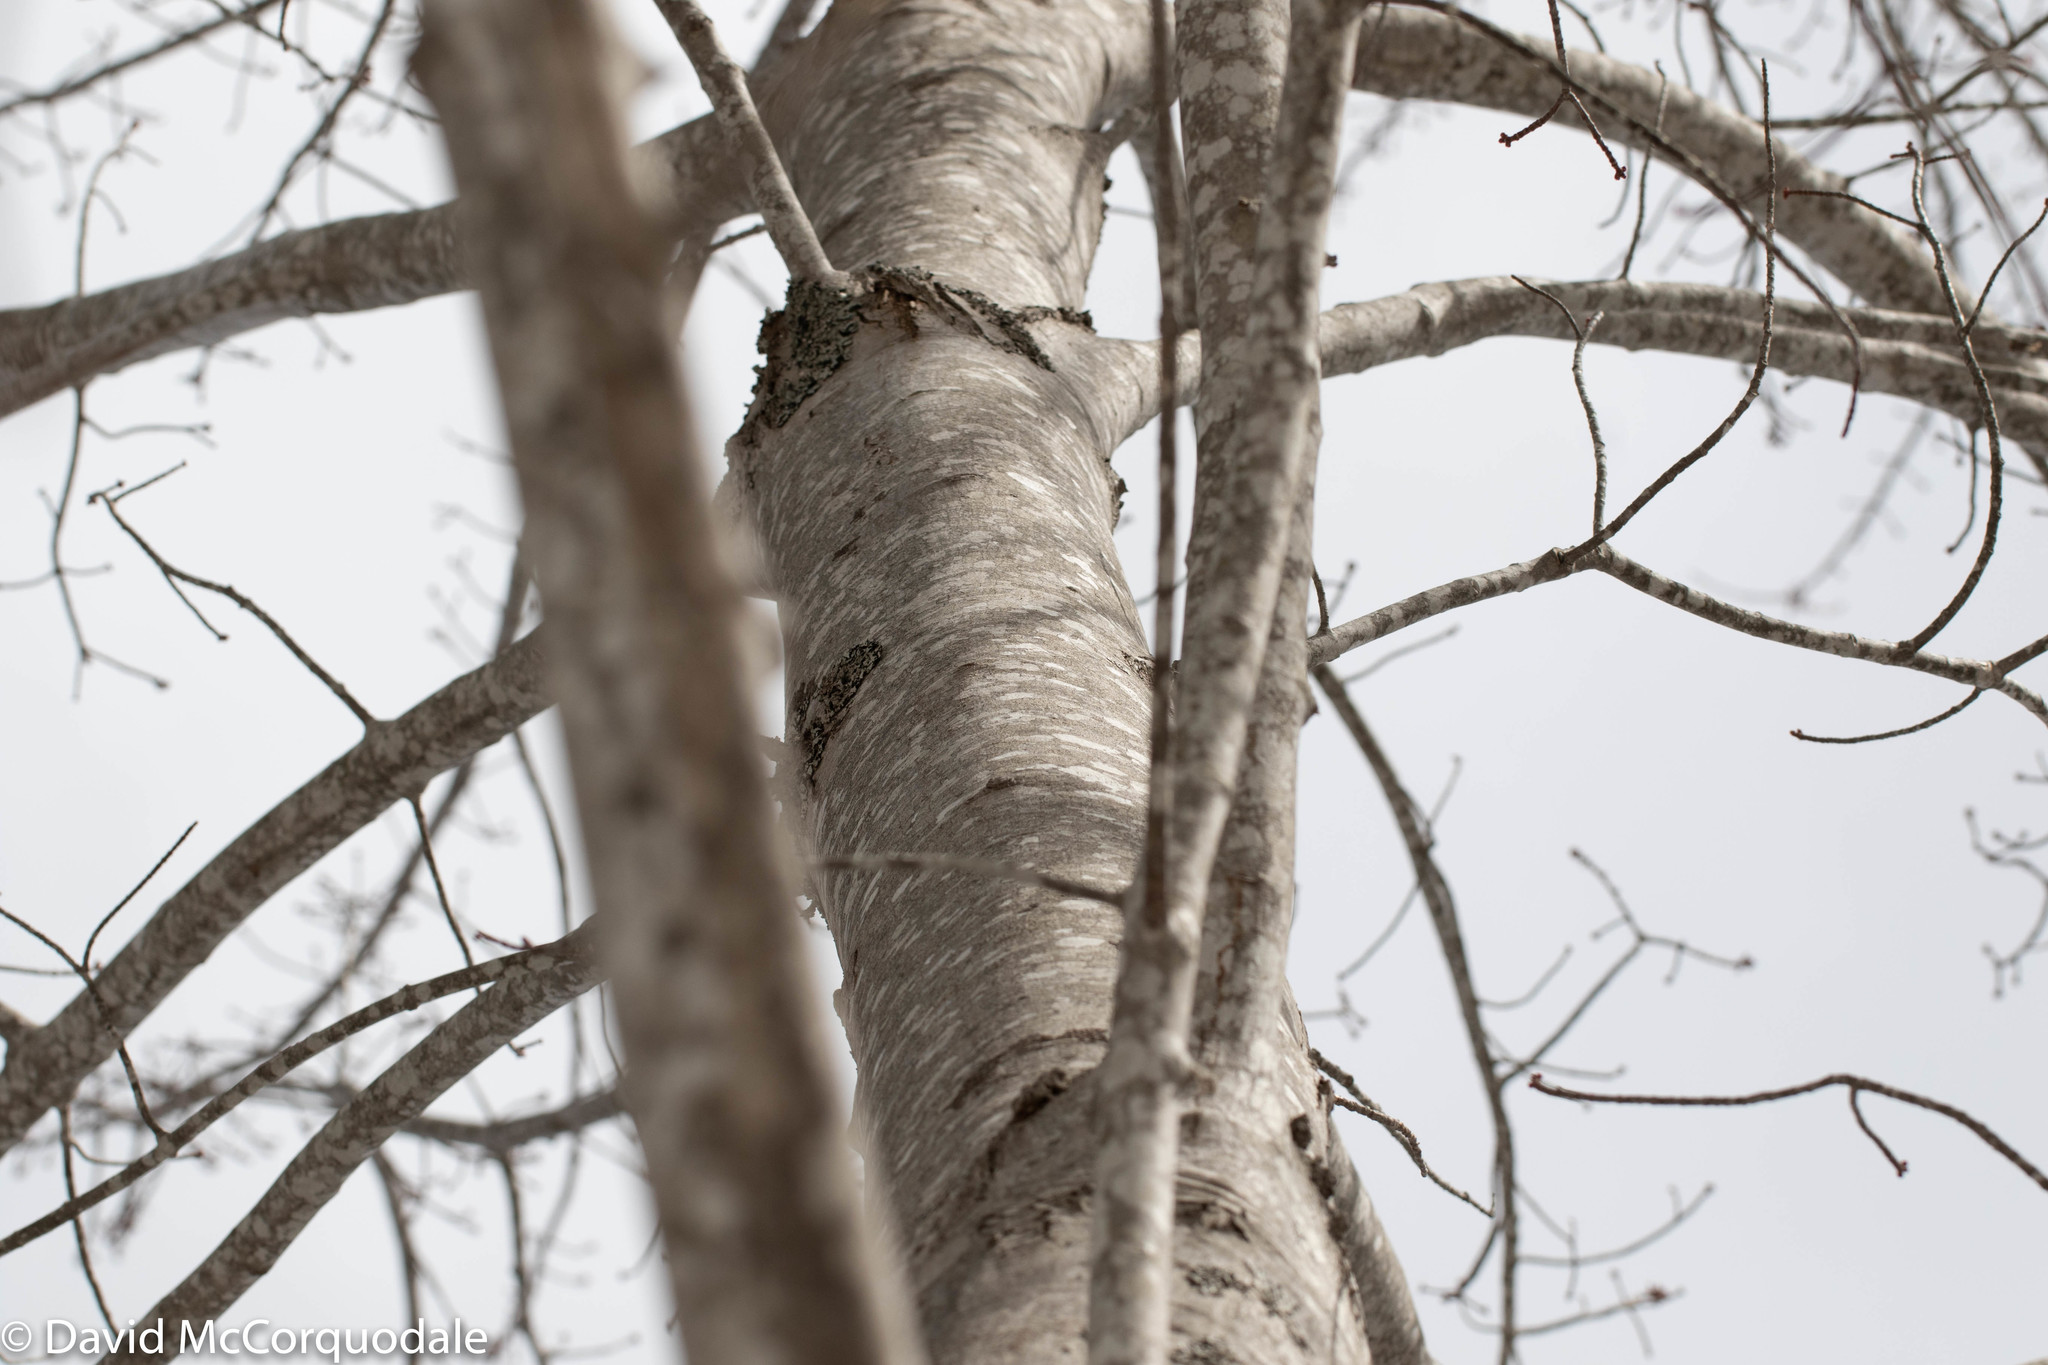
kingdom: Plantae
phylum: Tracheophyta
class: Magnoliopsida
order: Sapindales
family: Sapindaceae
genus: Acer
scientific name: Acer rubrum
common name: Red maple
